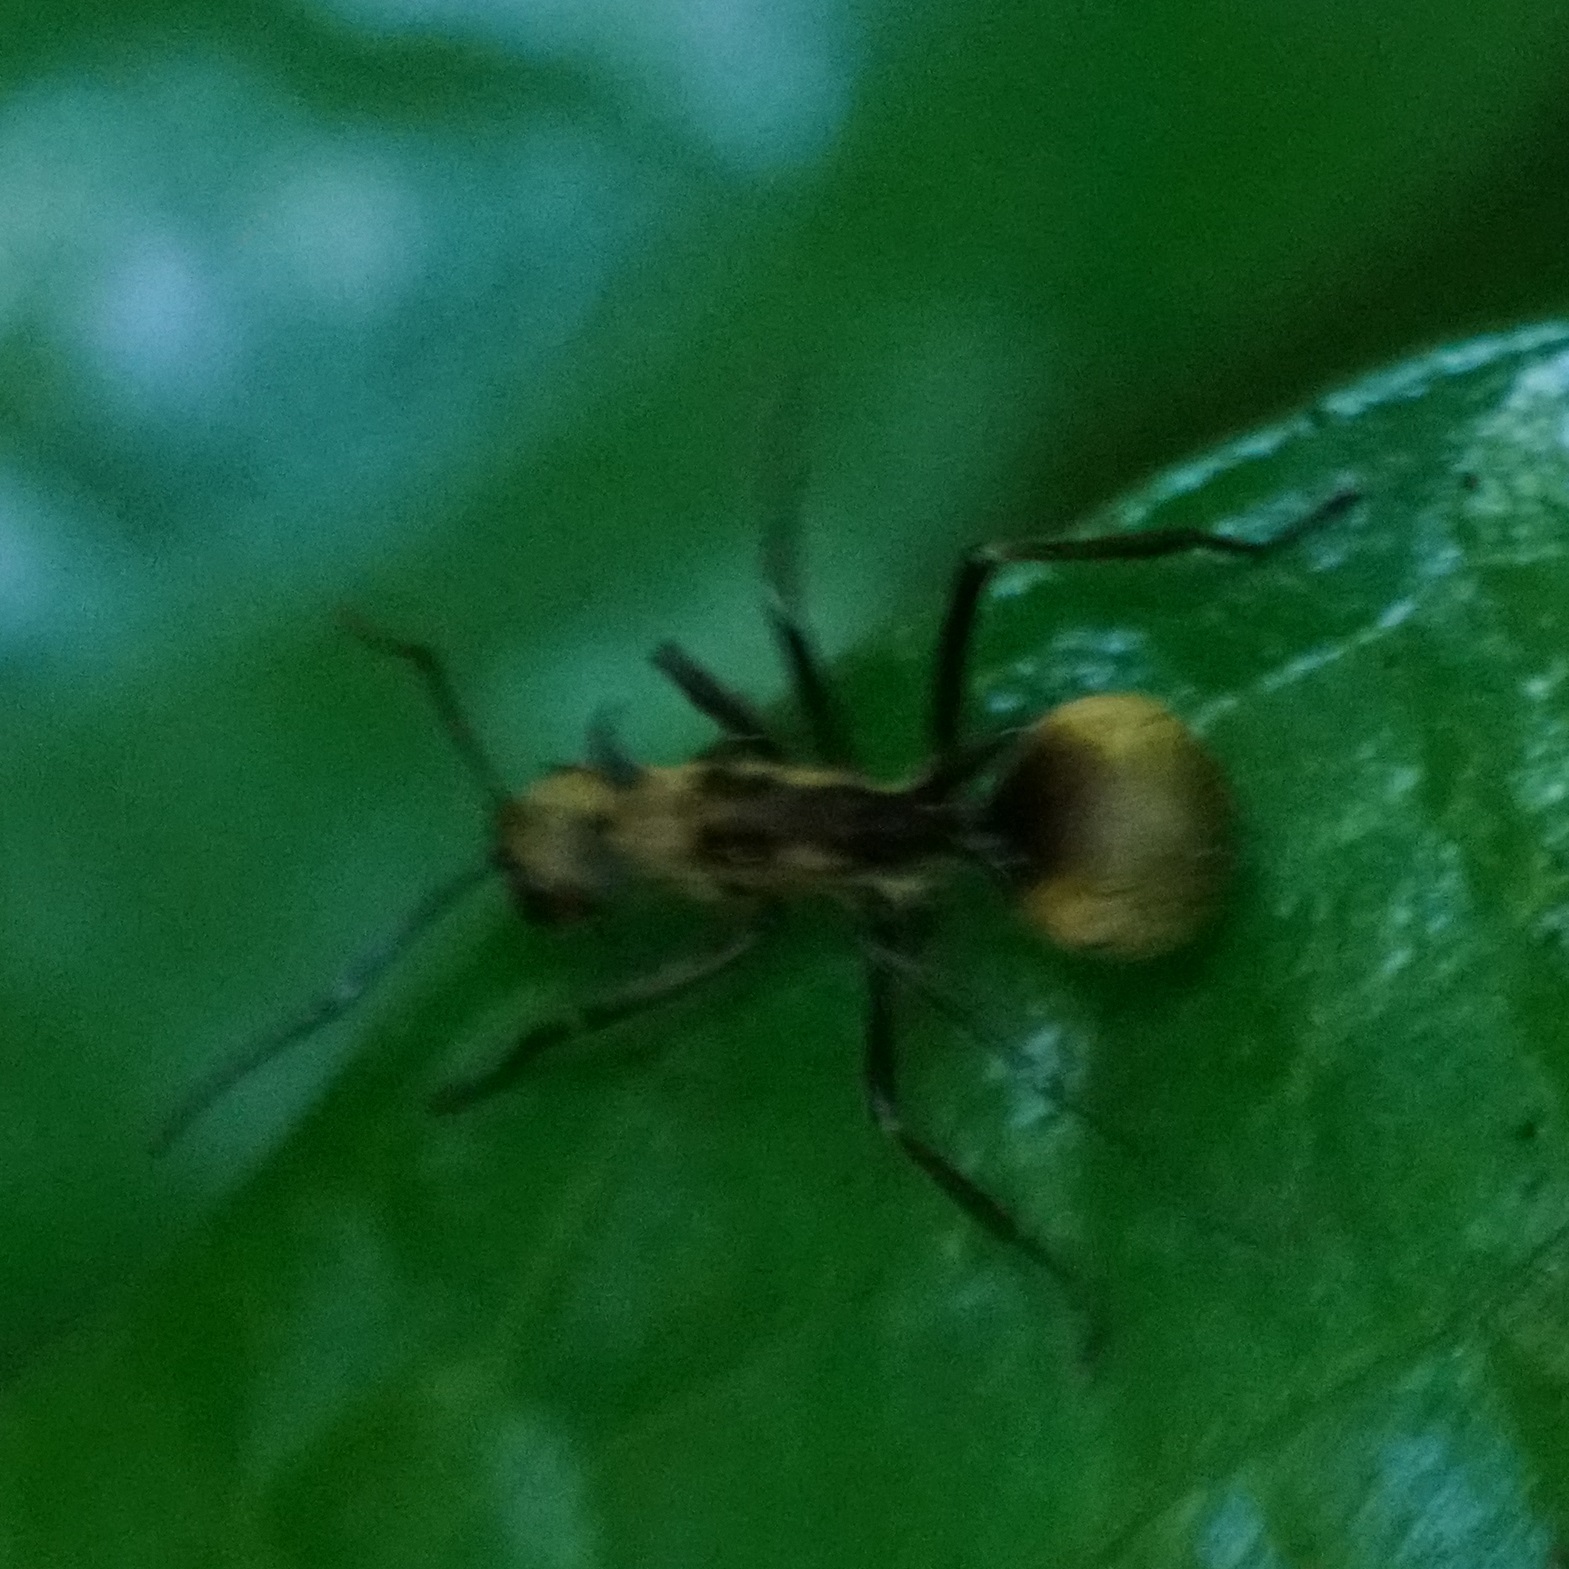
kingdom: Animalia
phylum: Arthropoda
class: Insecta
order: Hymenoptera
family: Formicidae
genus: Polyrhachis
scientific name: Polyrhachis ypsilon
